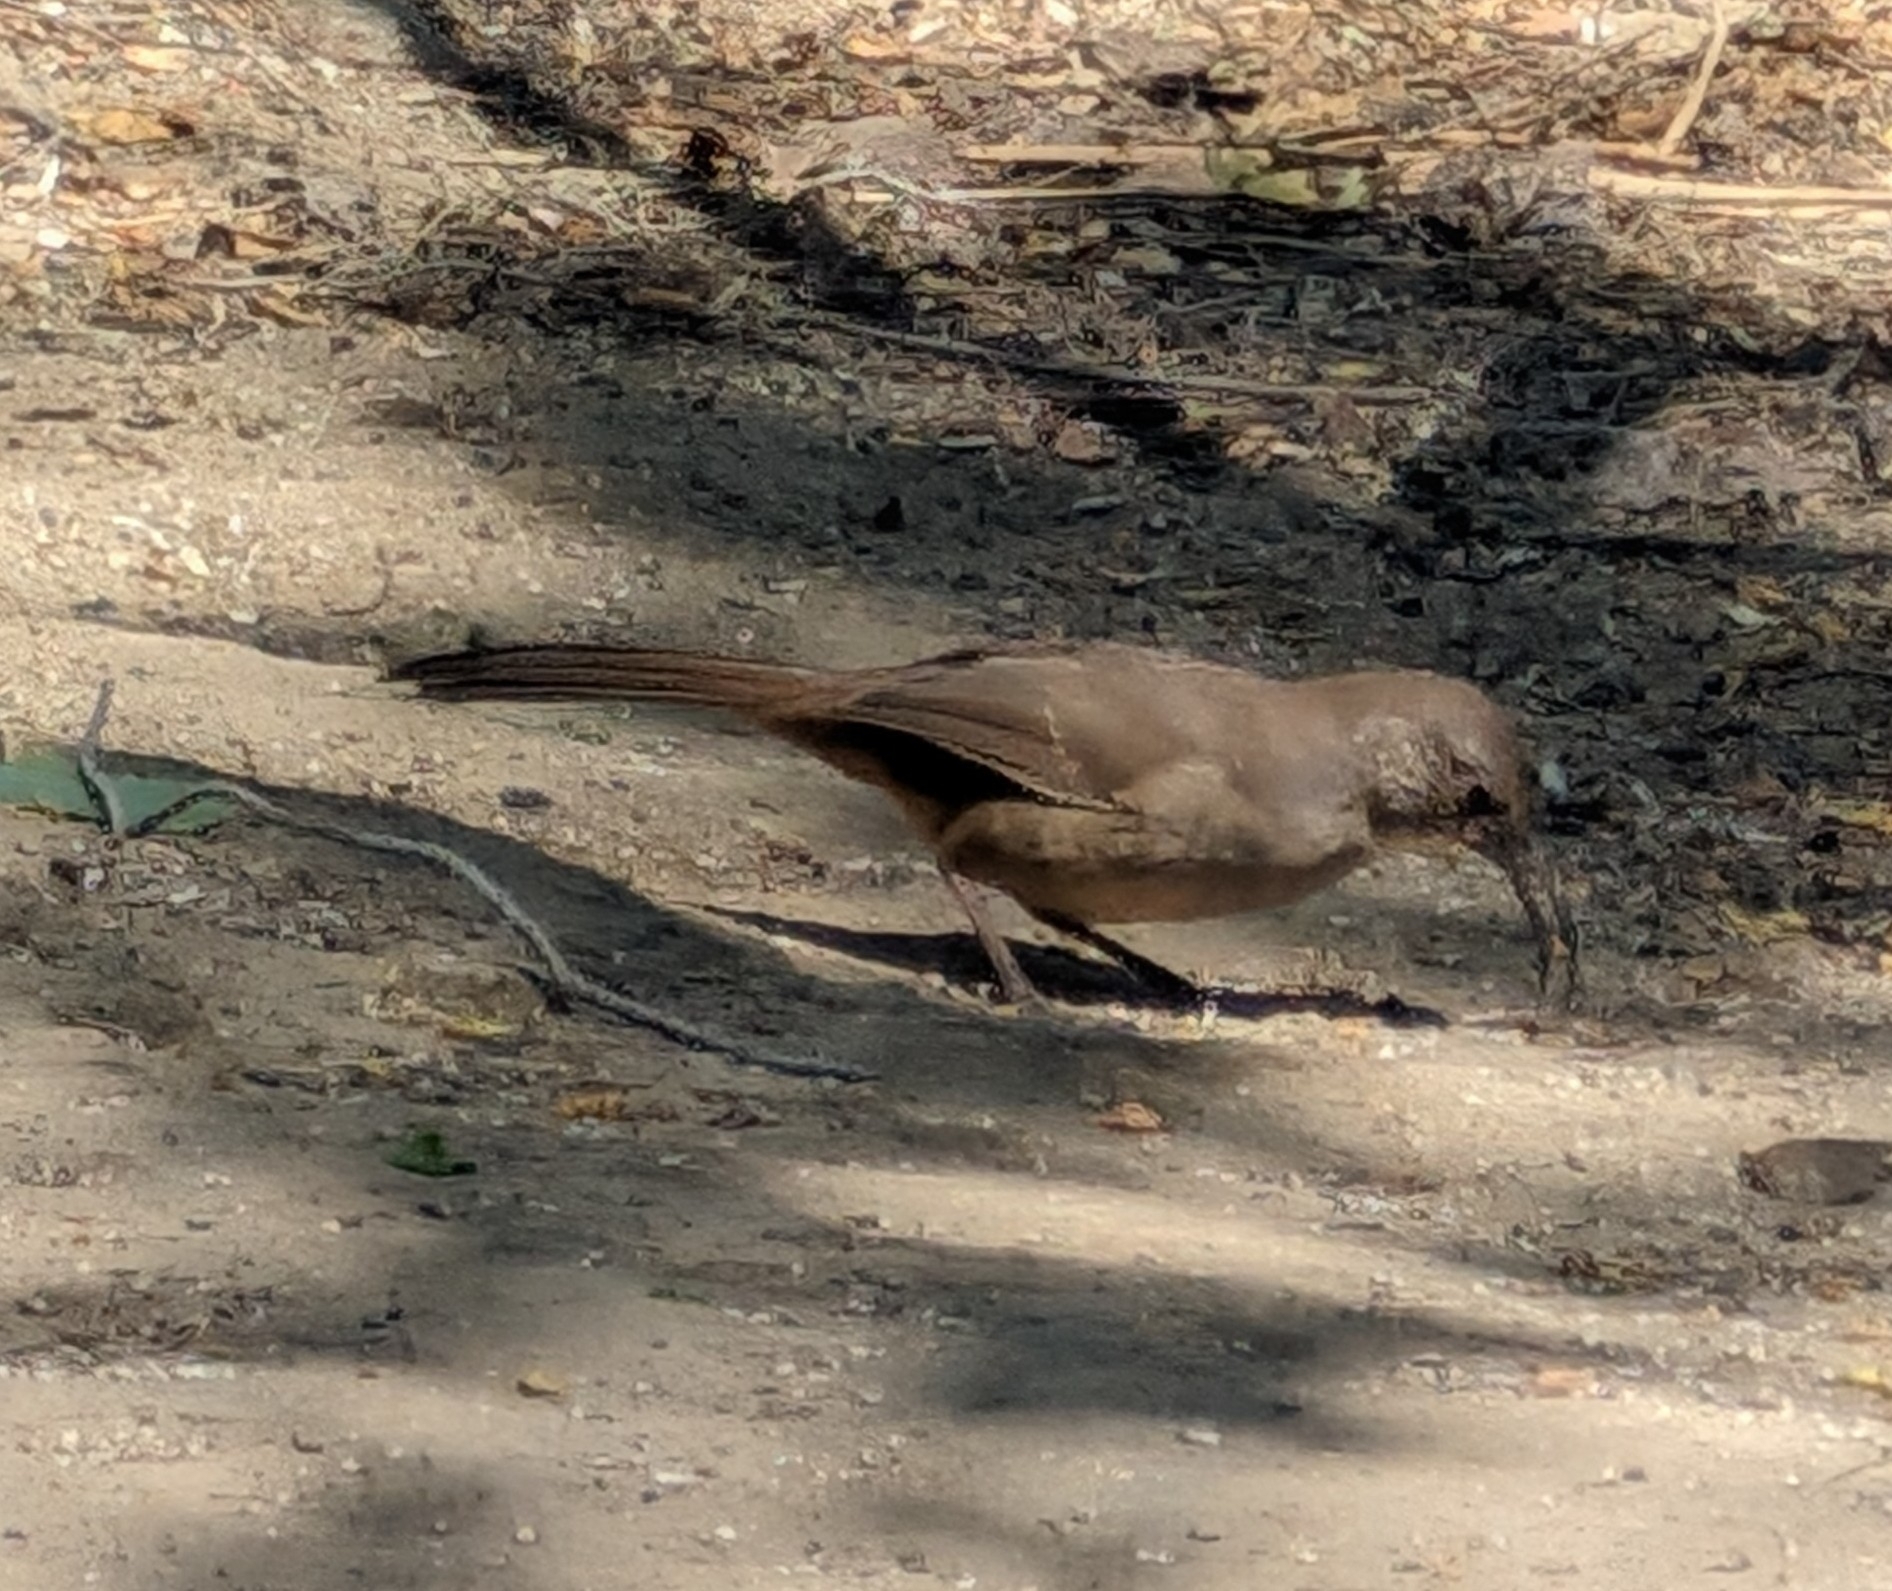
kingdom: Animalia
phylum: Chordata
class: Aves
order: Passeriformes
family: Mimidae
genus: Toxostoma
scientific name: Toxostoma redivivum
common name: California thrasher
